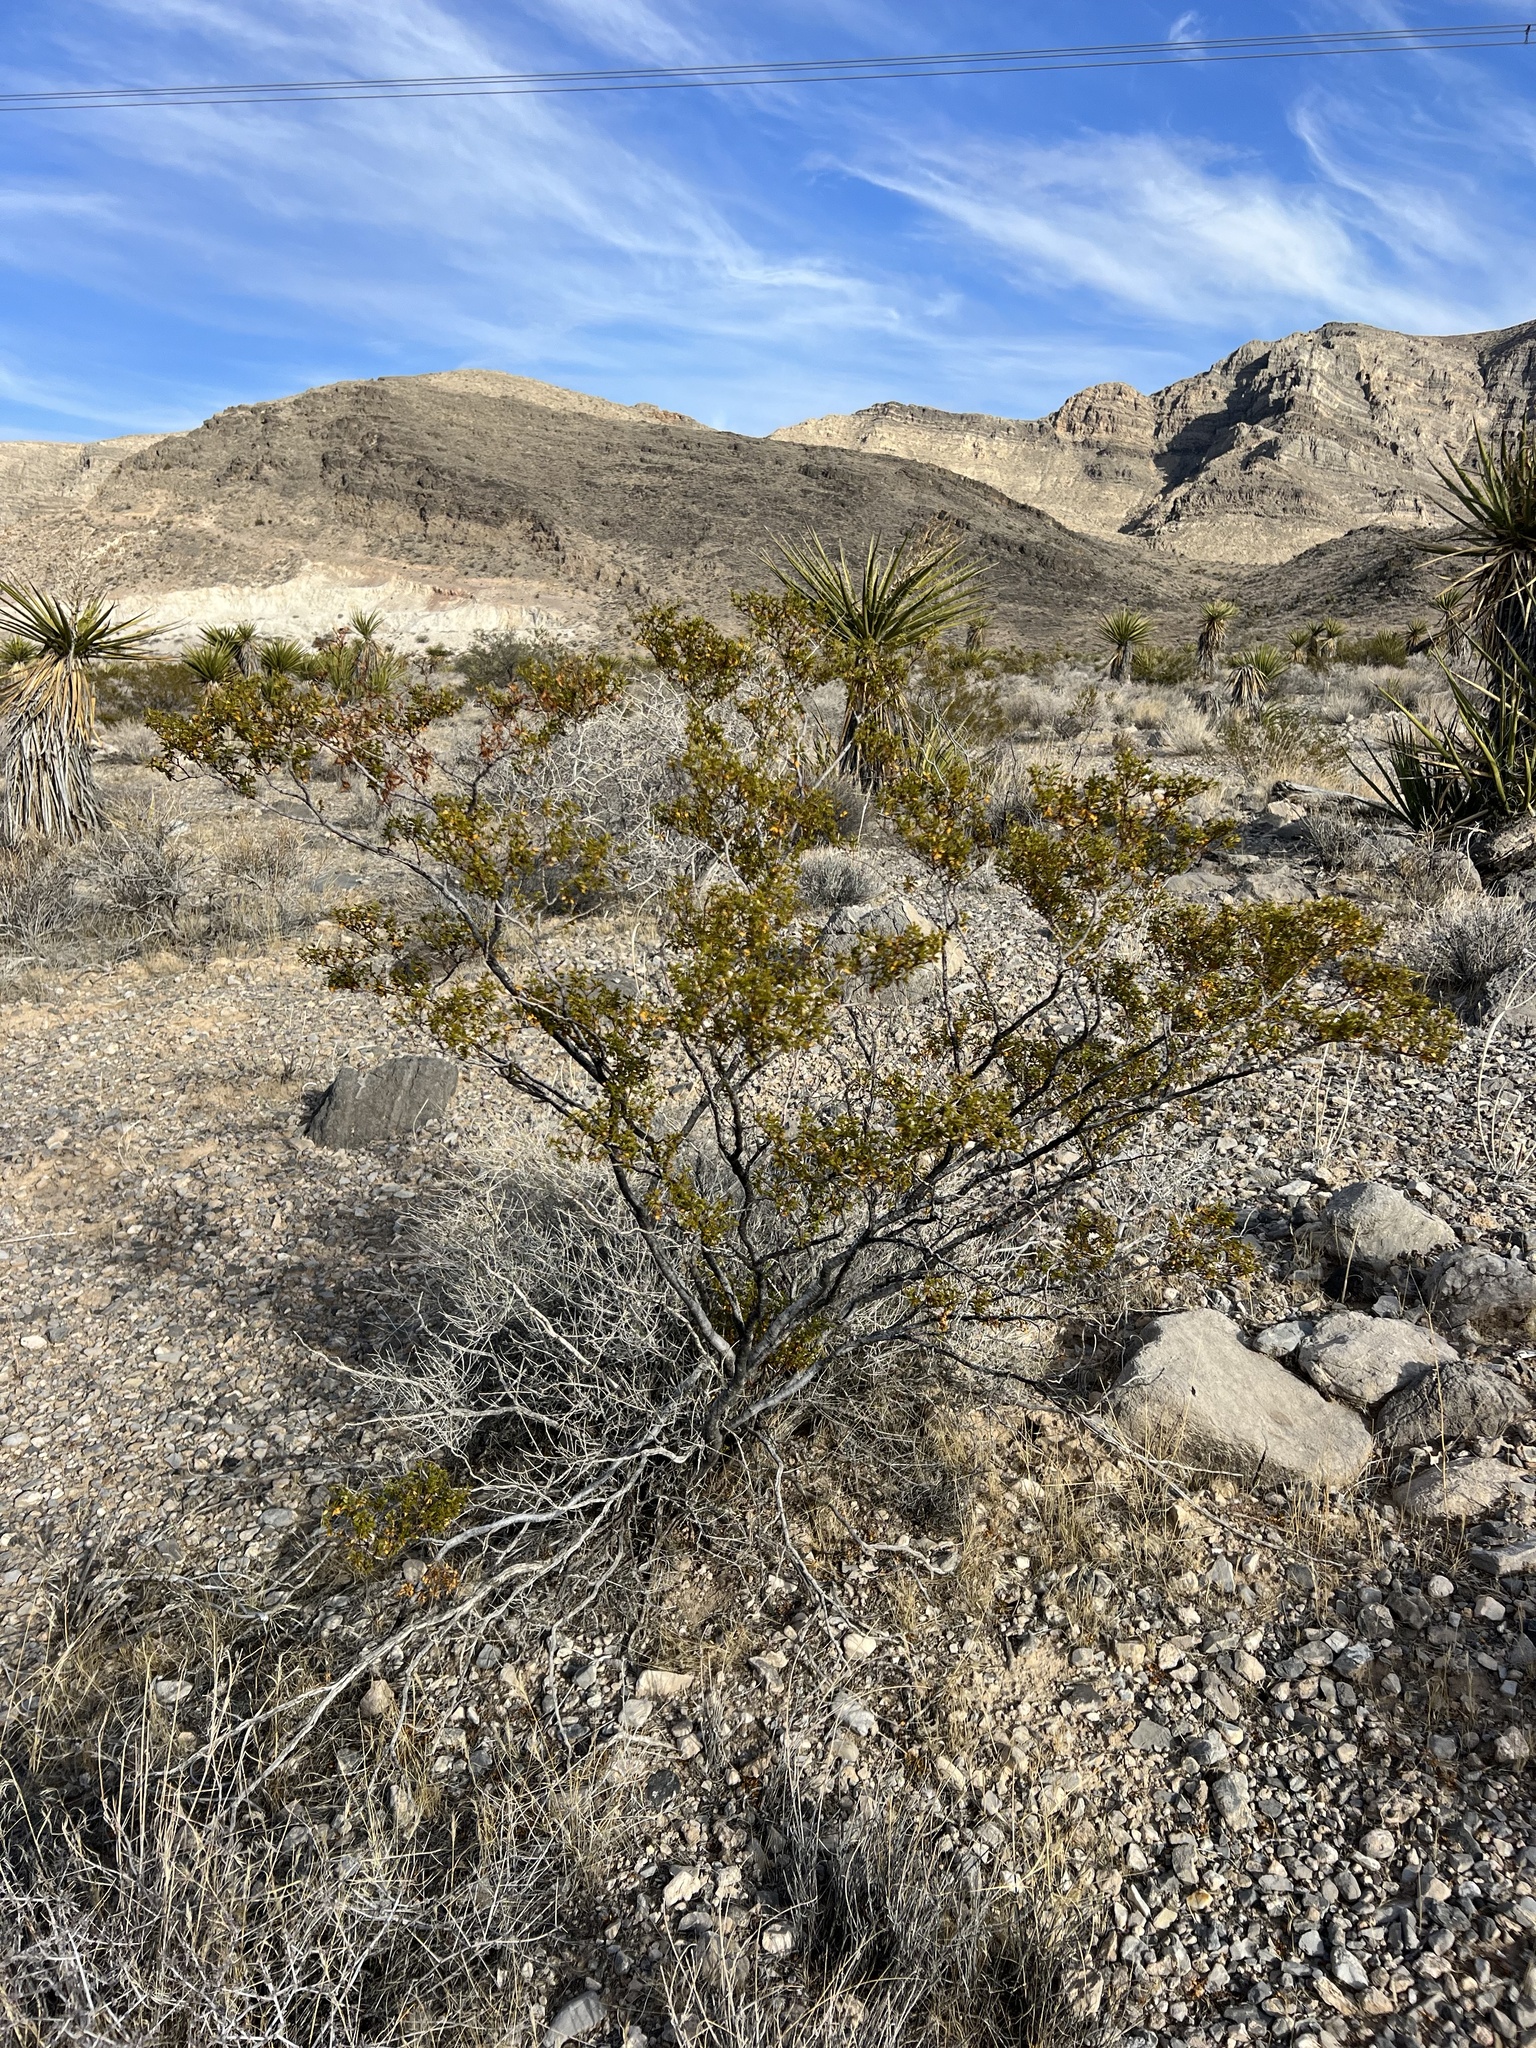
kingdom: Plantae
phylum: Tracheophyta
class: Magnoliopsida
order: Zygophyllales
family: Zygophyllaceae
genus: Larrea
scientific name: Larrea tridentata
